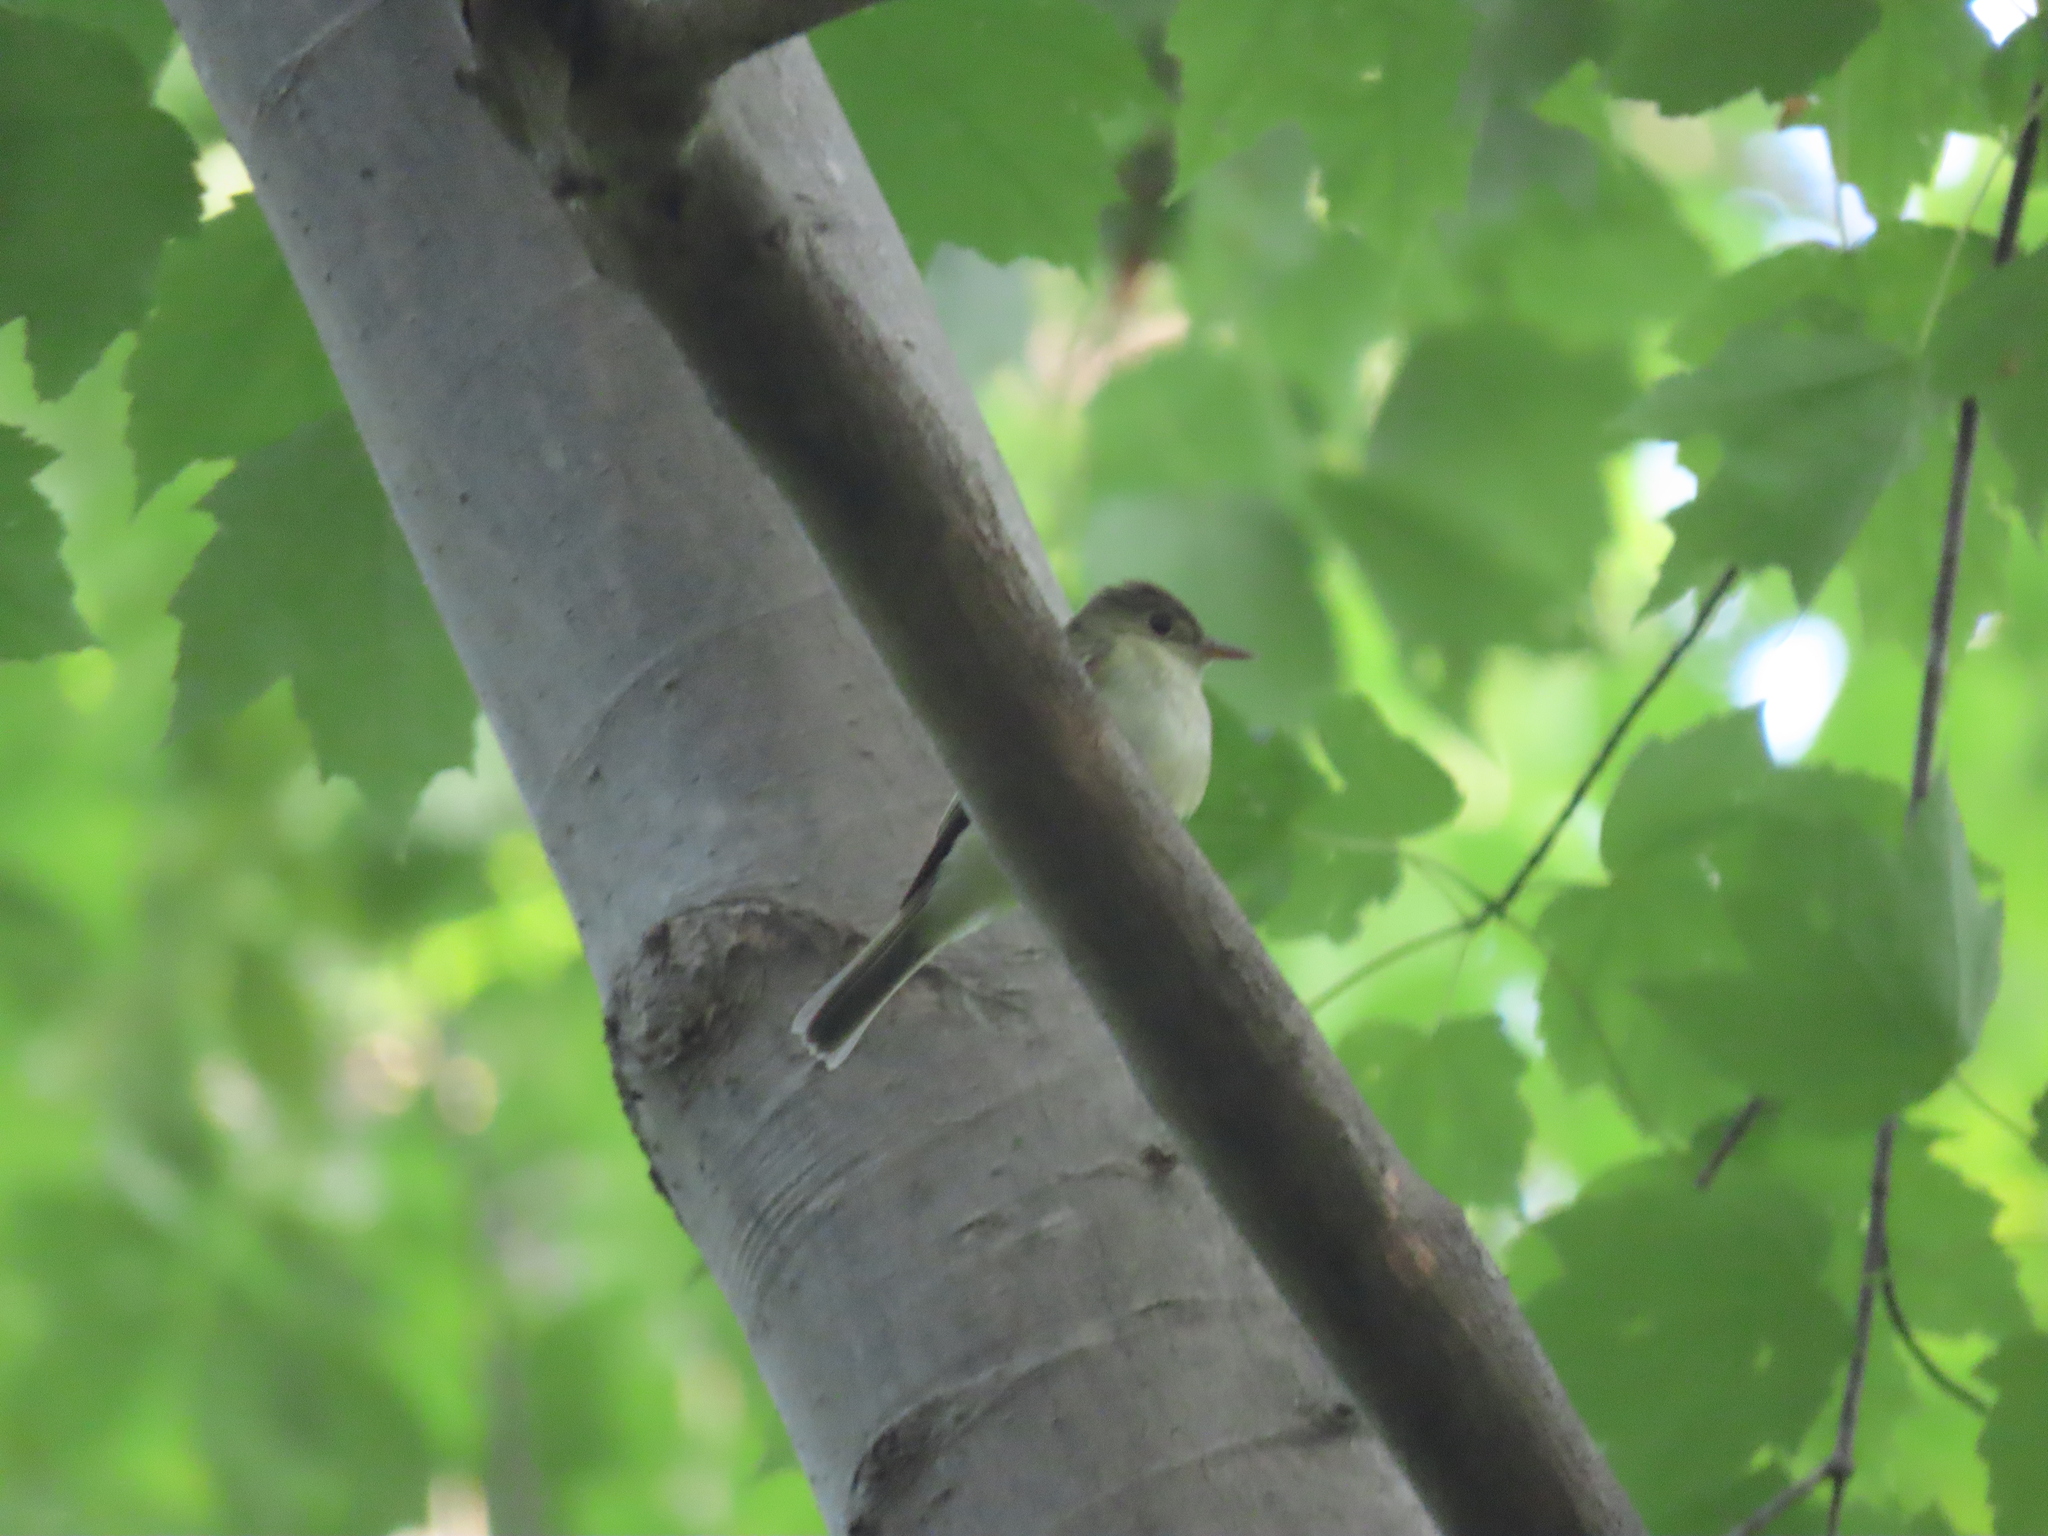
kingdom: Animalia
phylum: Chordata
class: Aves
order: Passeriformes
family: Tyrannidae
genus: Empidonax
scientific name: Empidonax virescens
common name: Acadian flycatcher
